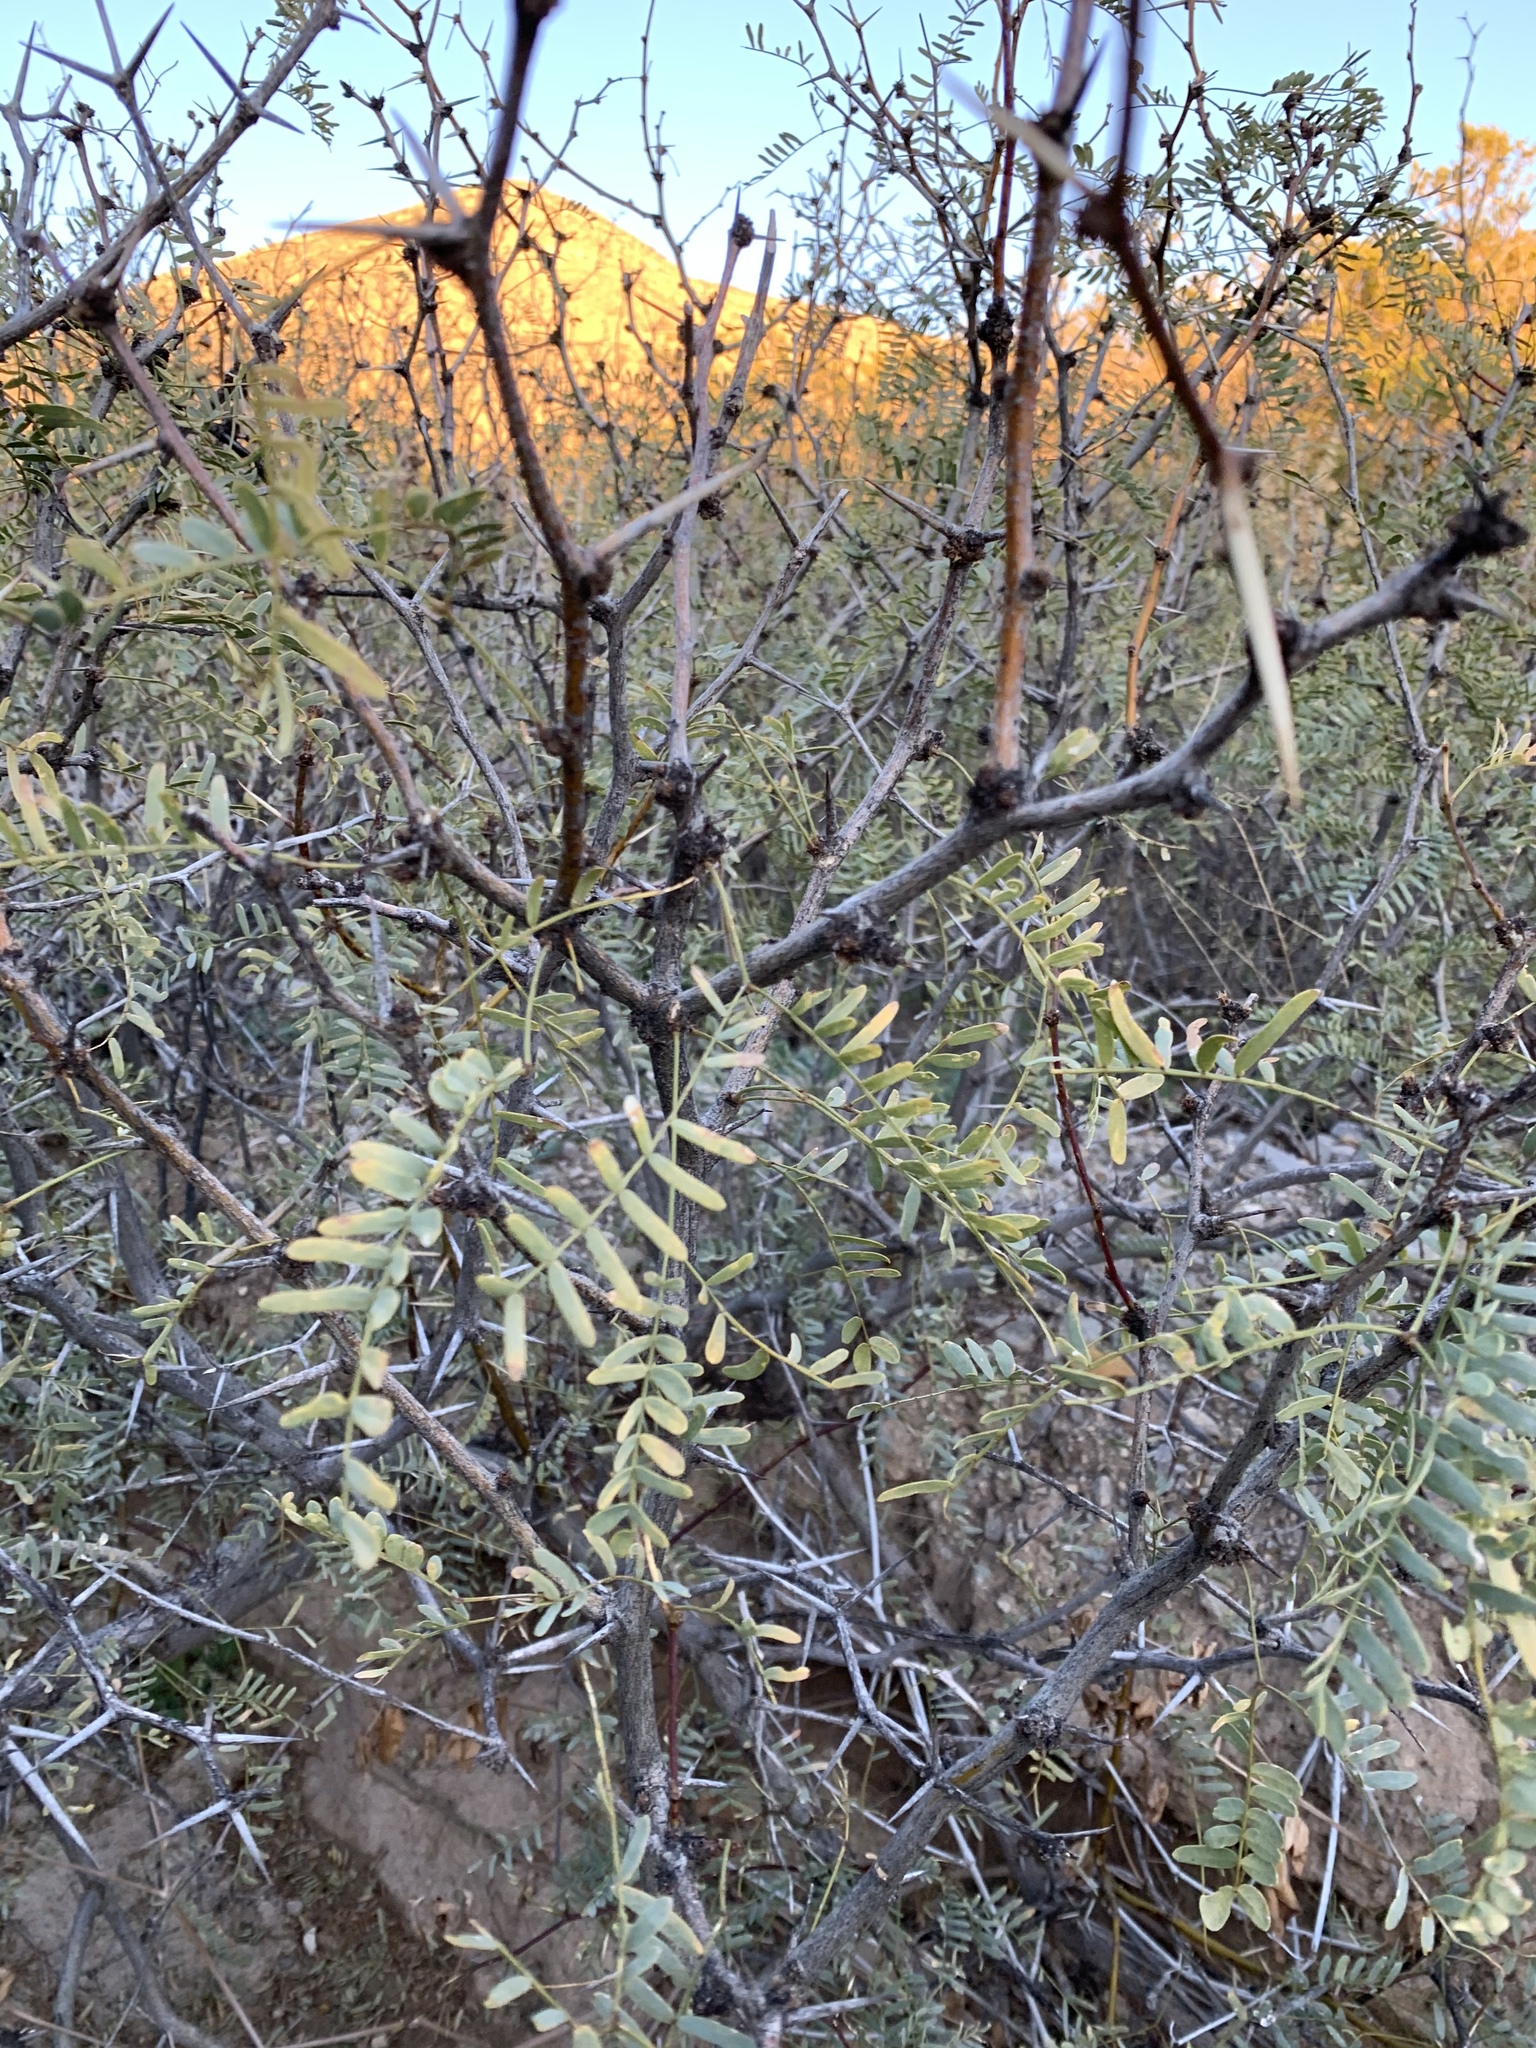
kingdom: Plantae
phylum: Tracheophyta
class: Magnoliopsida
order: Fabales
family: Fabaceae
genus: Prosopis
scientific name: Prosopis glandulosa
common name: Honey mesquite
